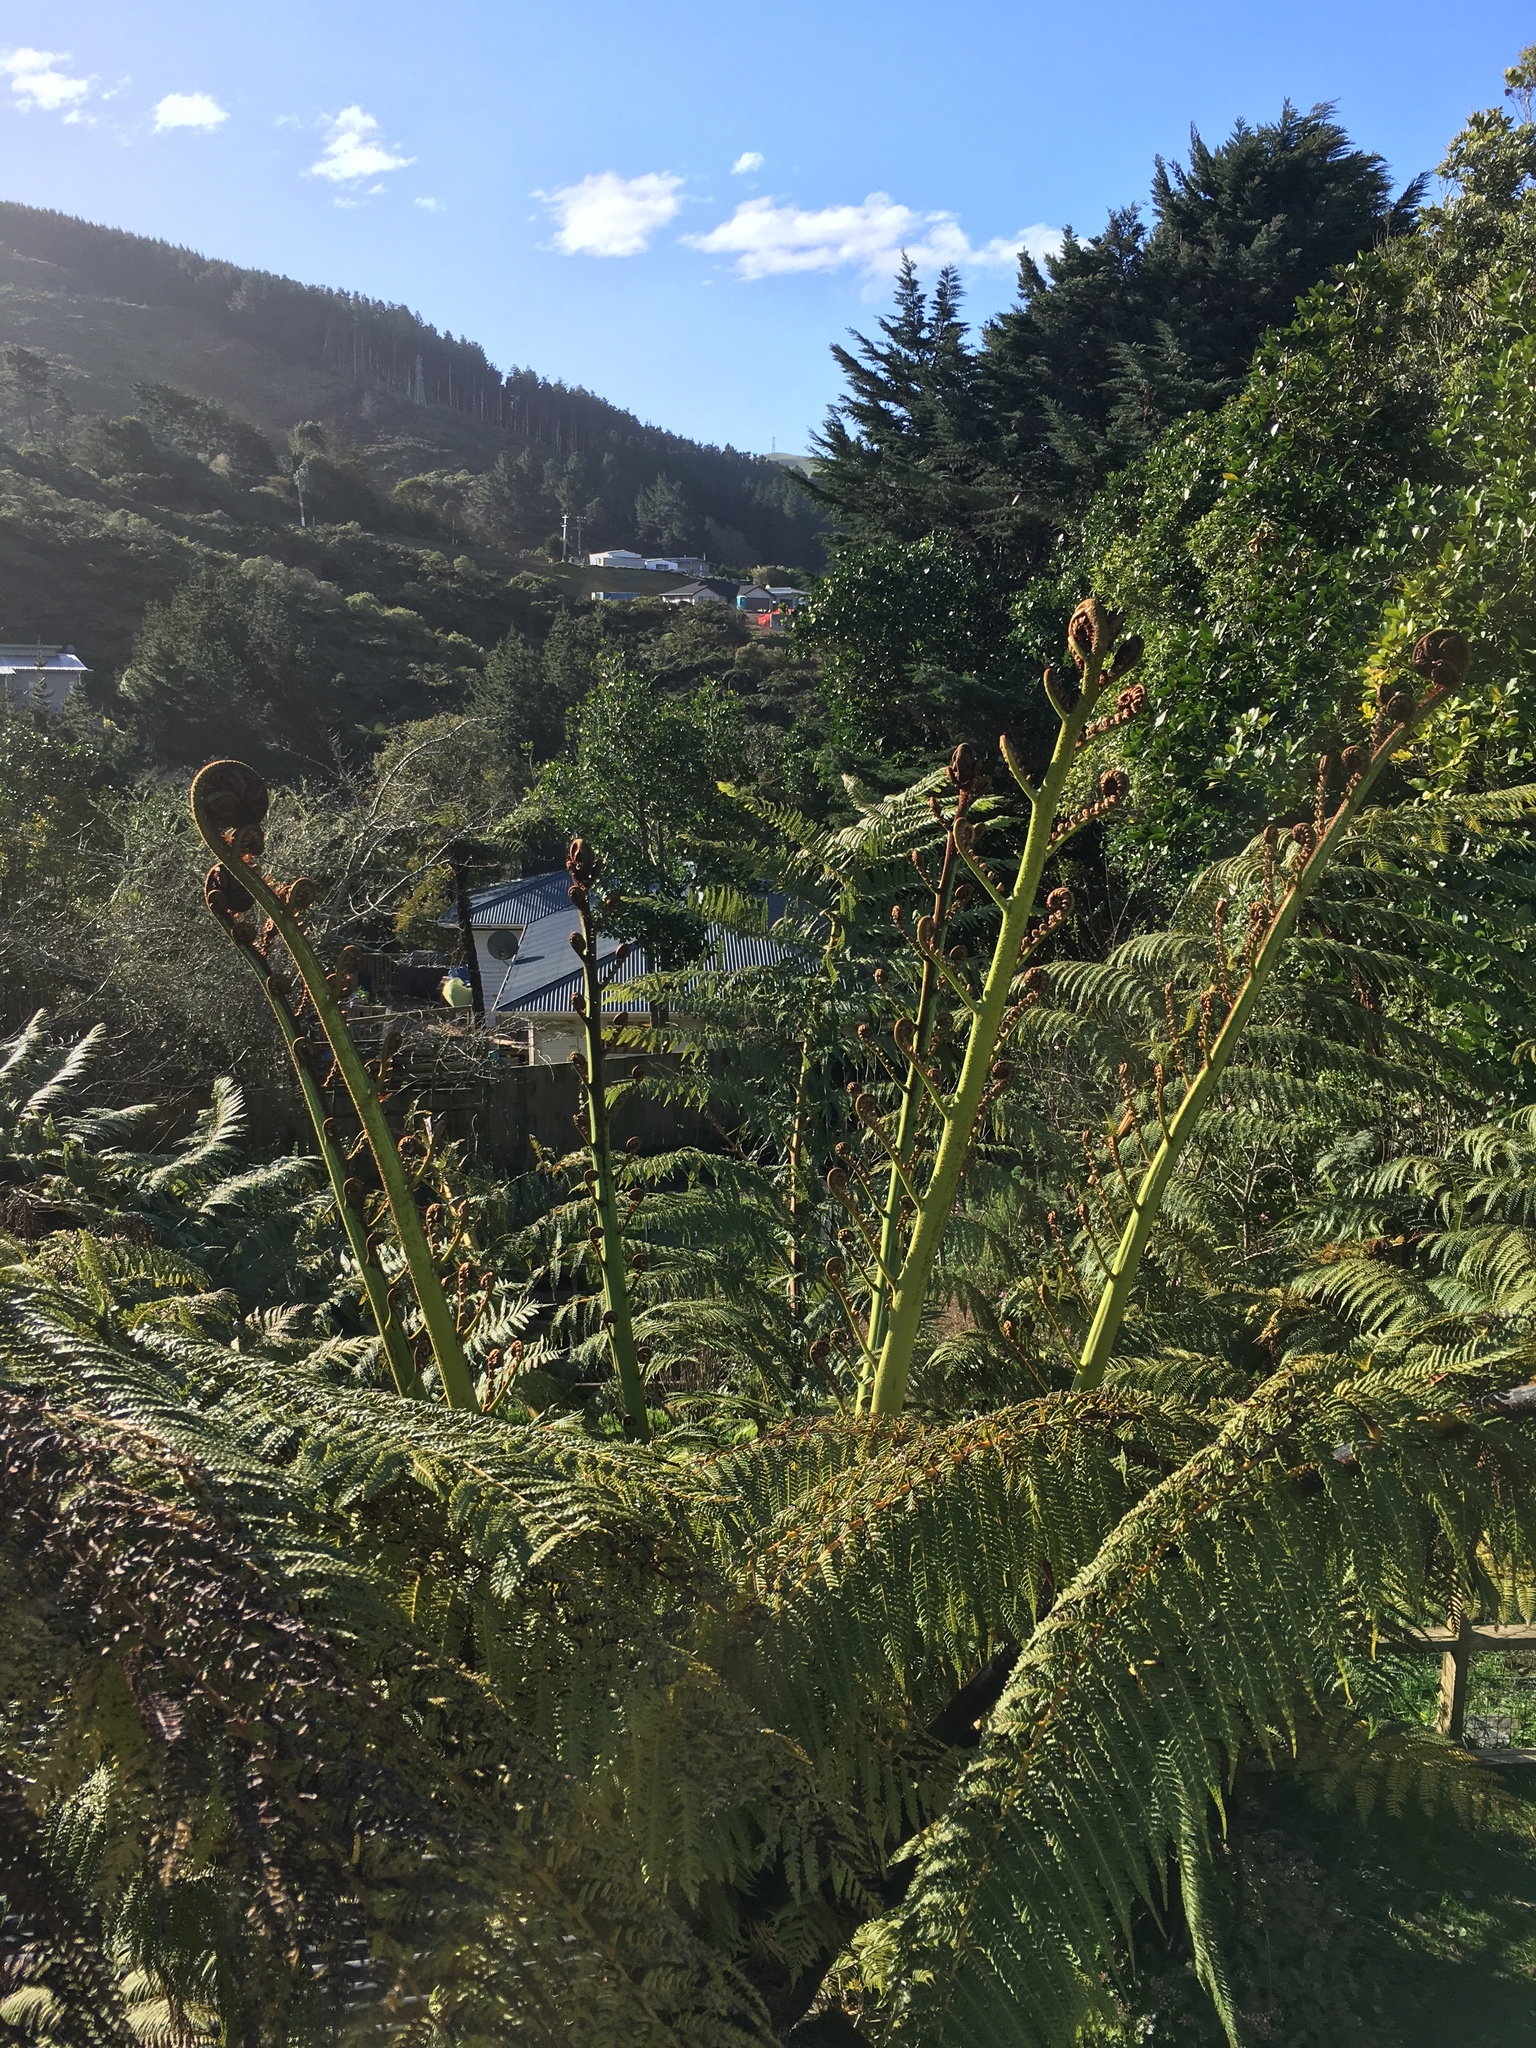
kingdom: Plantae
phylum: Tracheophyta
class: Polypodiopsida
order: Cyatheales
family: Cyatheaceae
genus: Sphaeropteris
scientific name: Sphaeropteris medullaris
